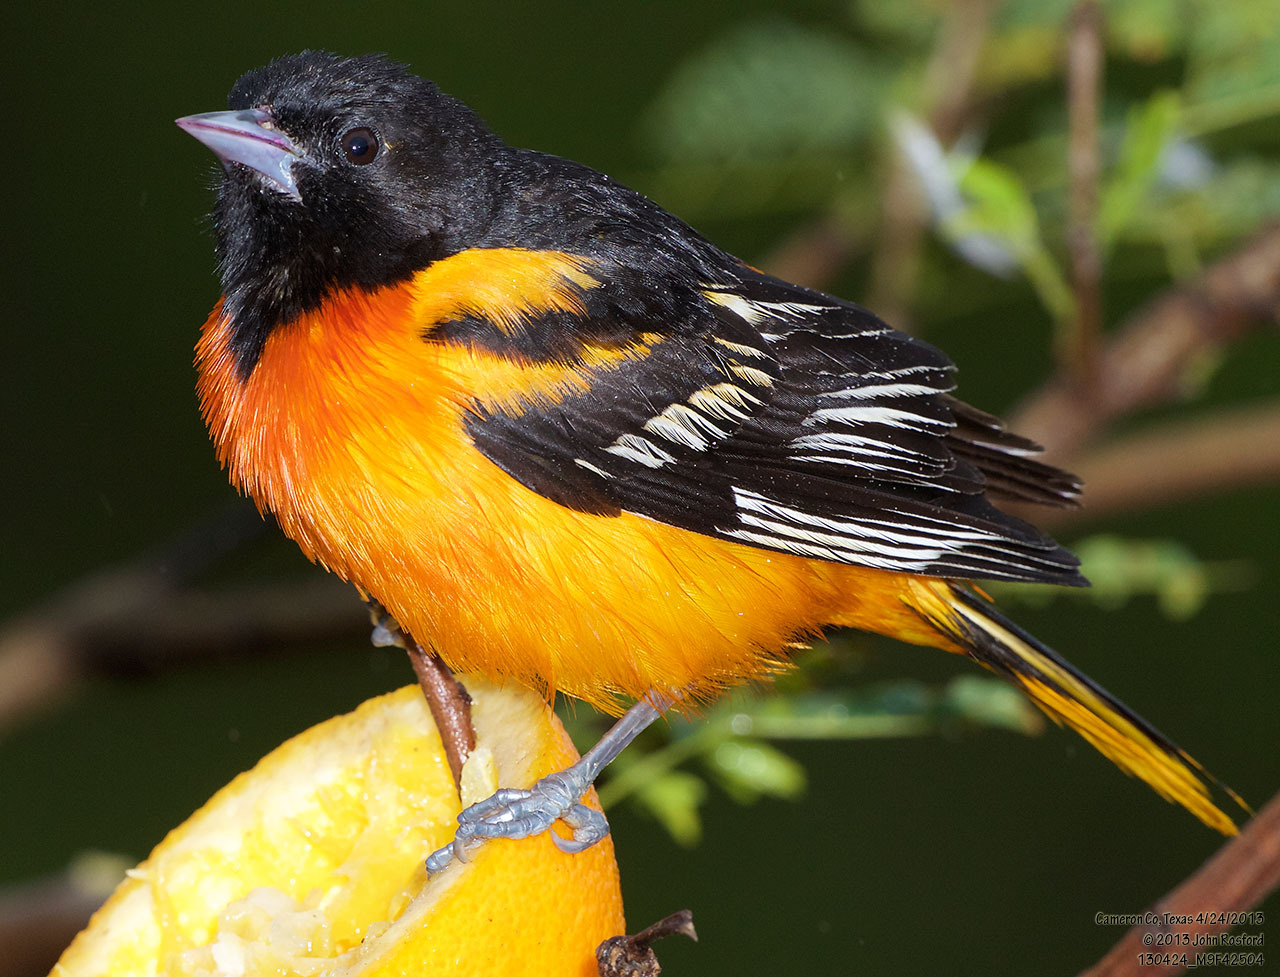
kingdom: Animalia
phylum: Chordata
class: Aves
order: Passeriformes
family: Icteridae
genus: Icterus
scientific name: Icterus galbula
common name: Baltimore oriole
